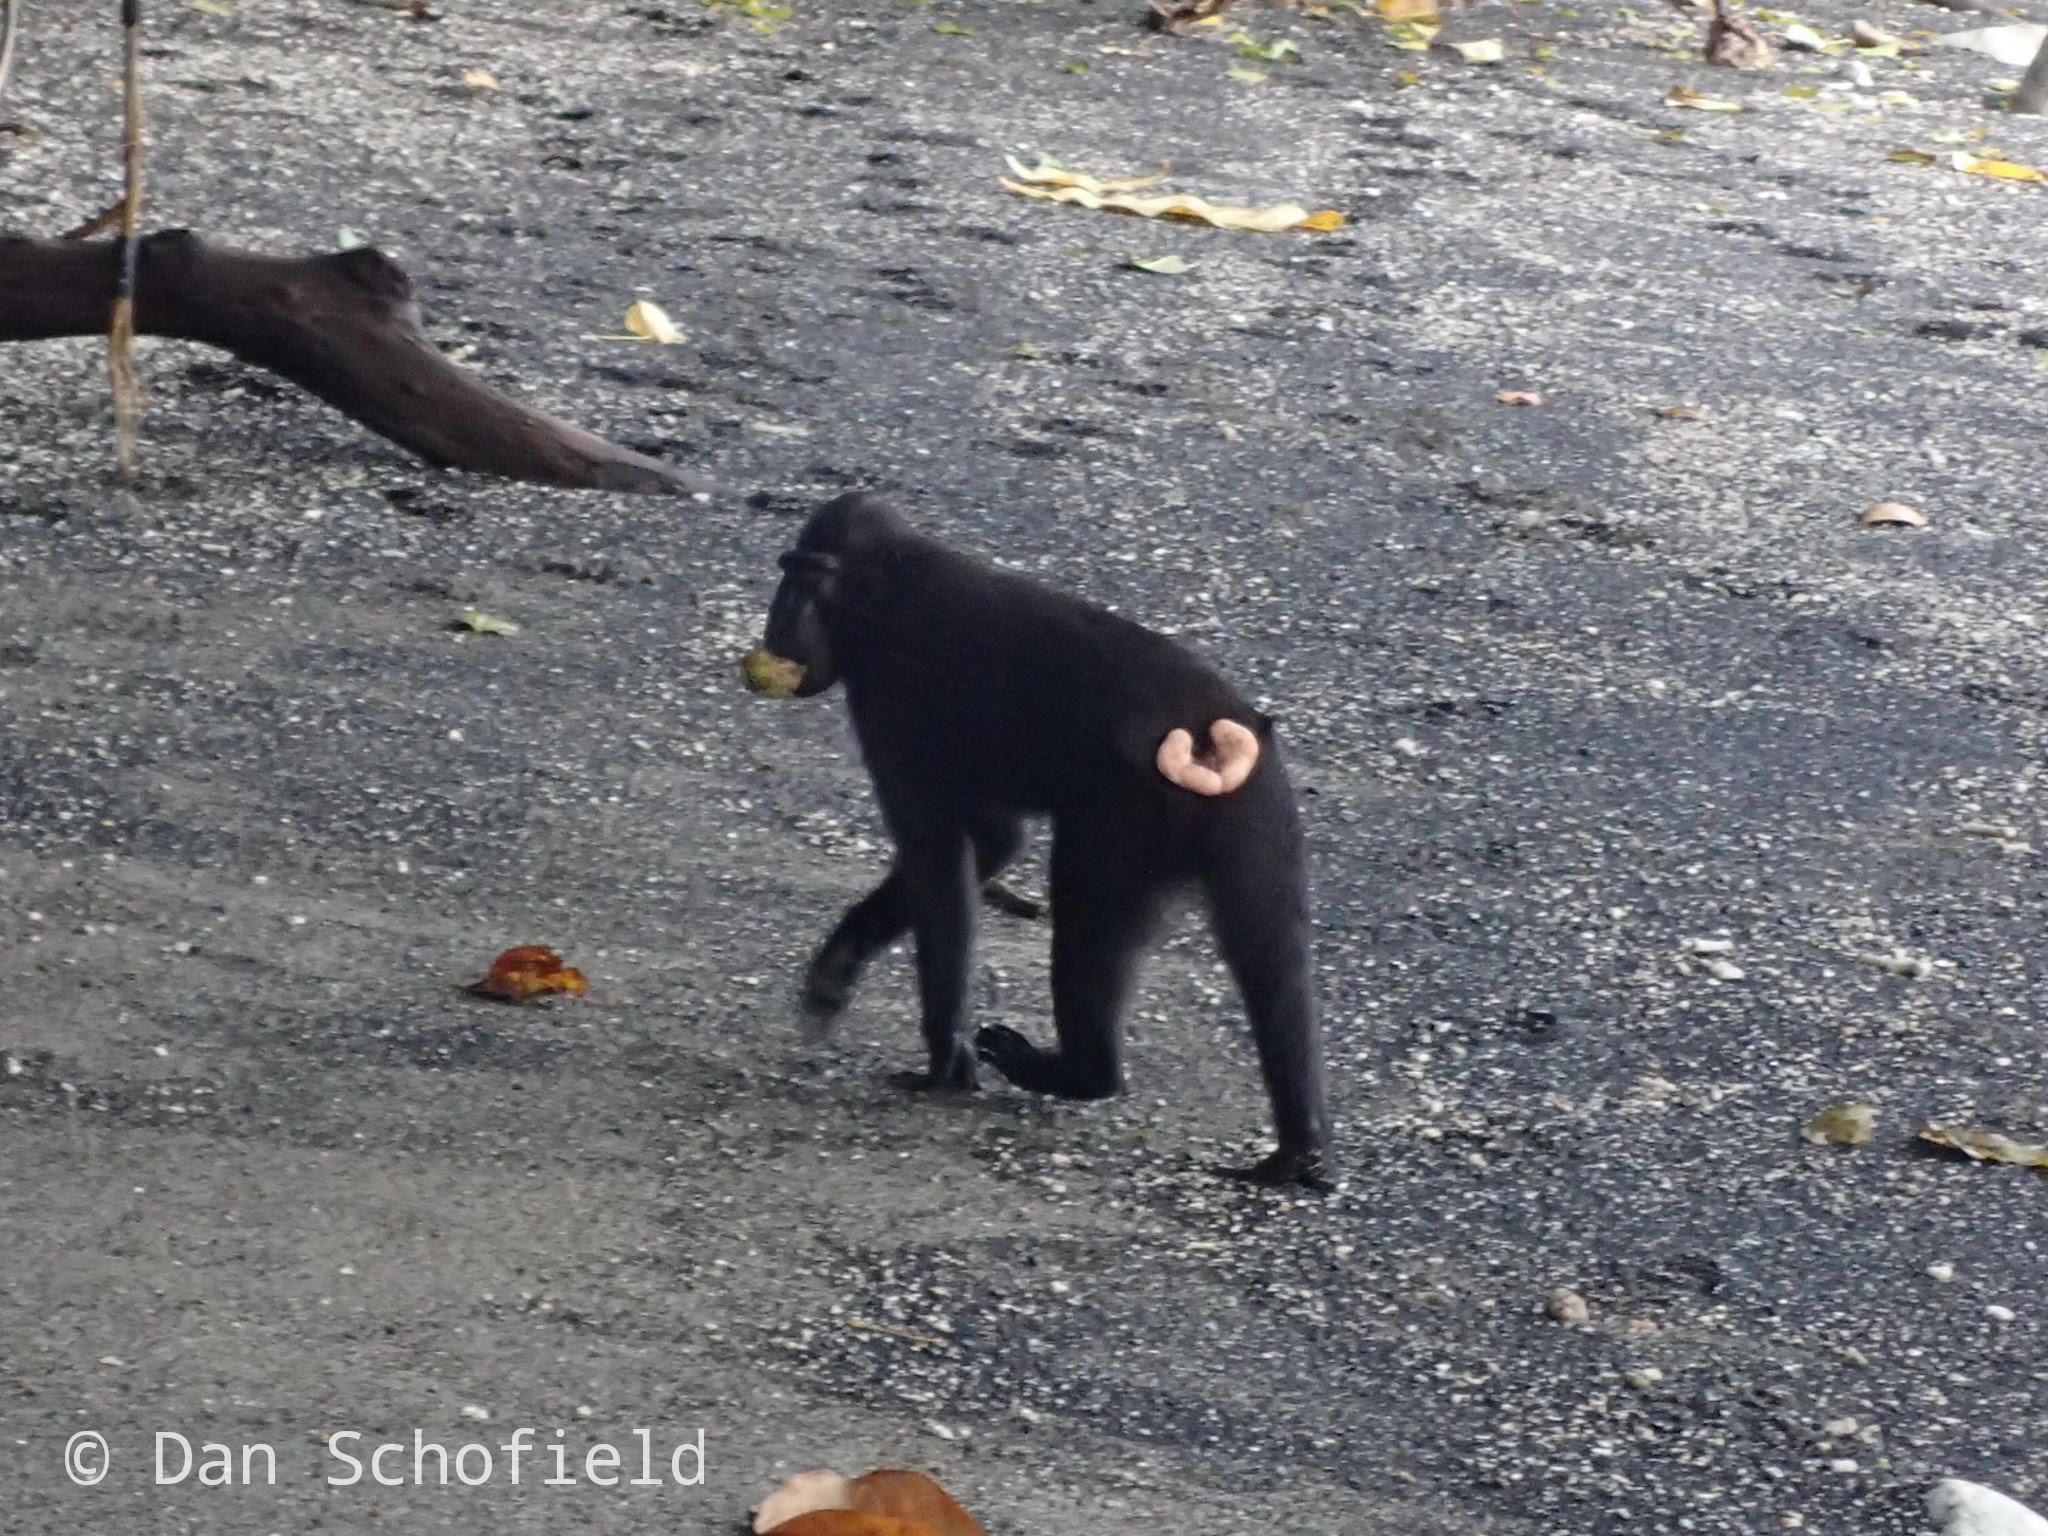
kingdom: Animalia
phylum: Chordata
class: Mammalia
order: Primates
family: Cercopithecidae
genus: Macaca
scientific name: Macaca nigra
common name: Celebes crested macaque
